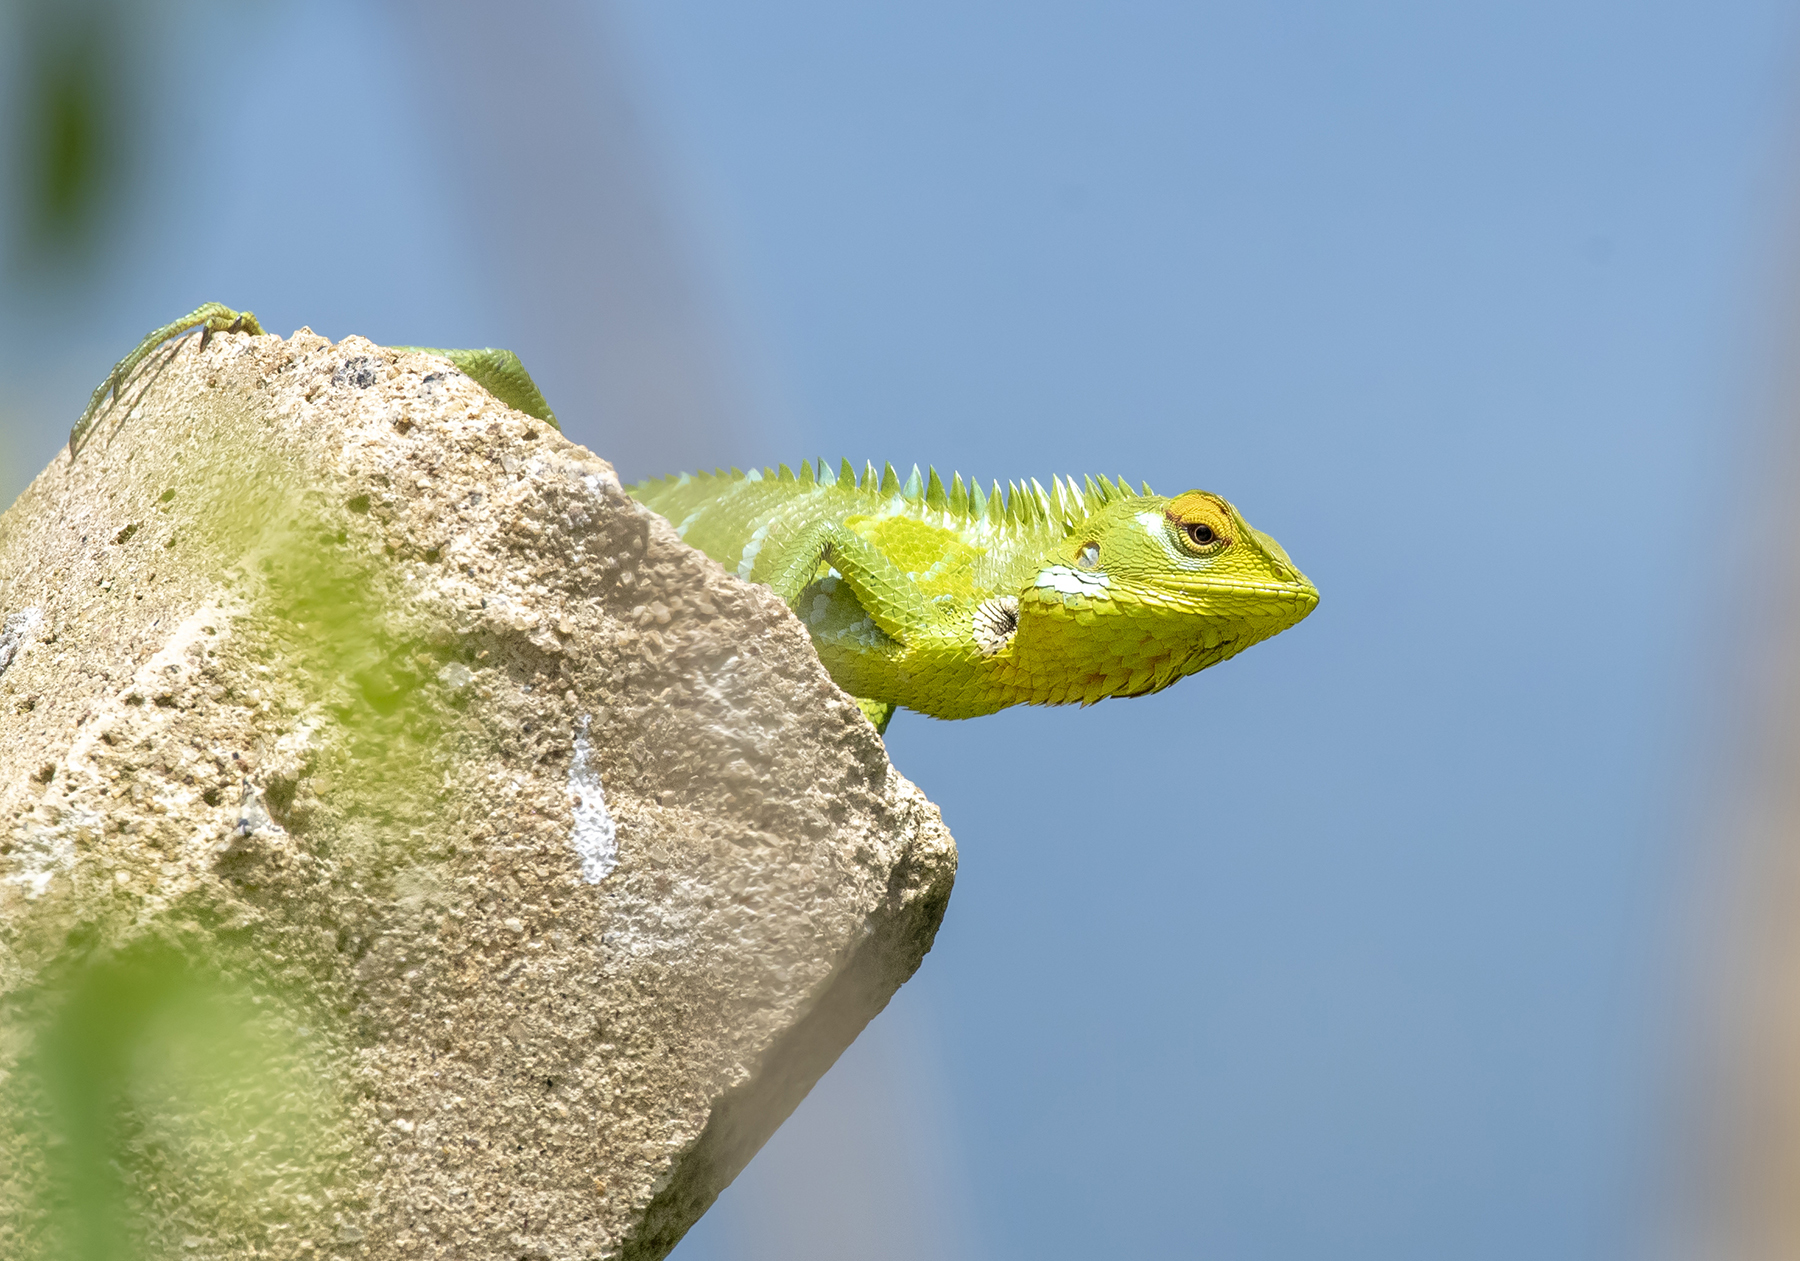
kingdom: Animalia
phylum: Chordata
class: Squamata
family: Agamidae
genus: Calotes
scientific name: Calotes calotes
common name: Common green forest lizard
